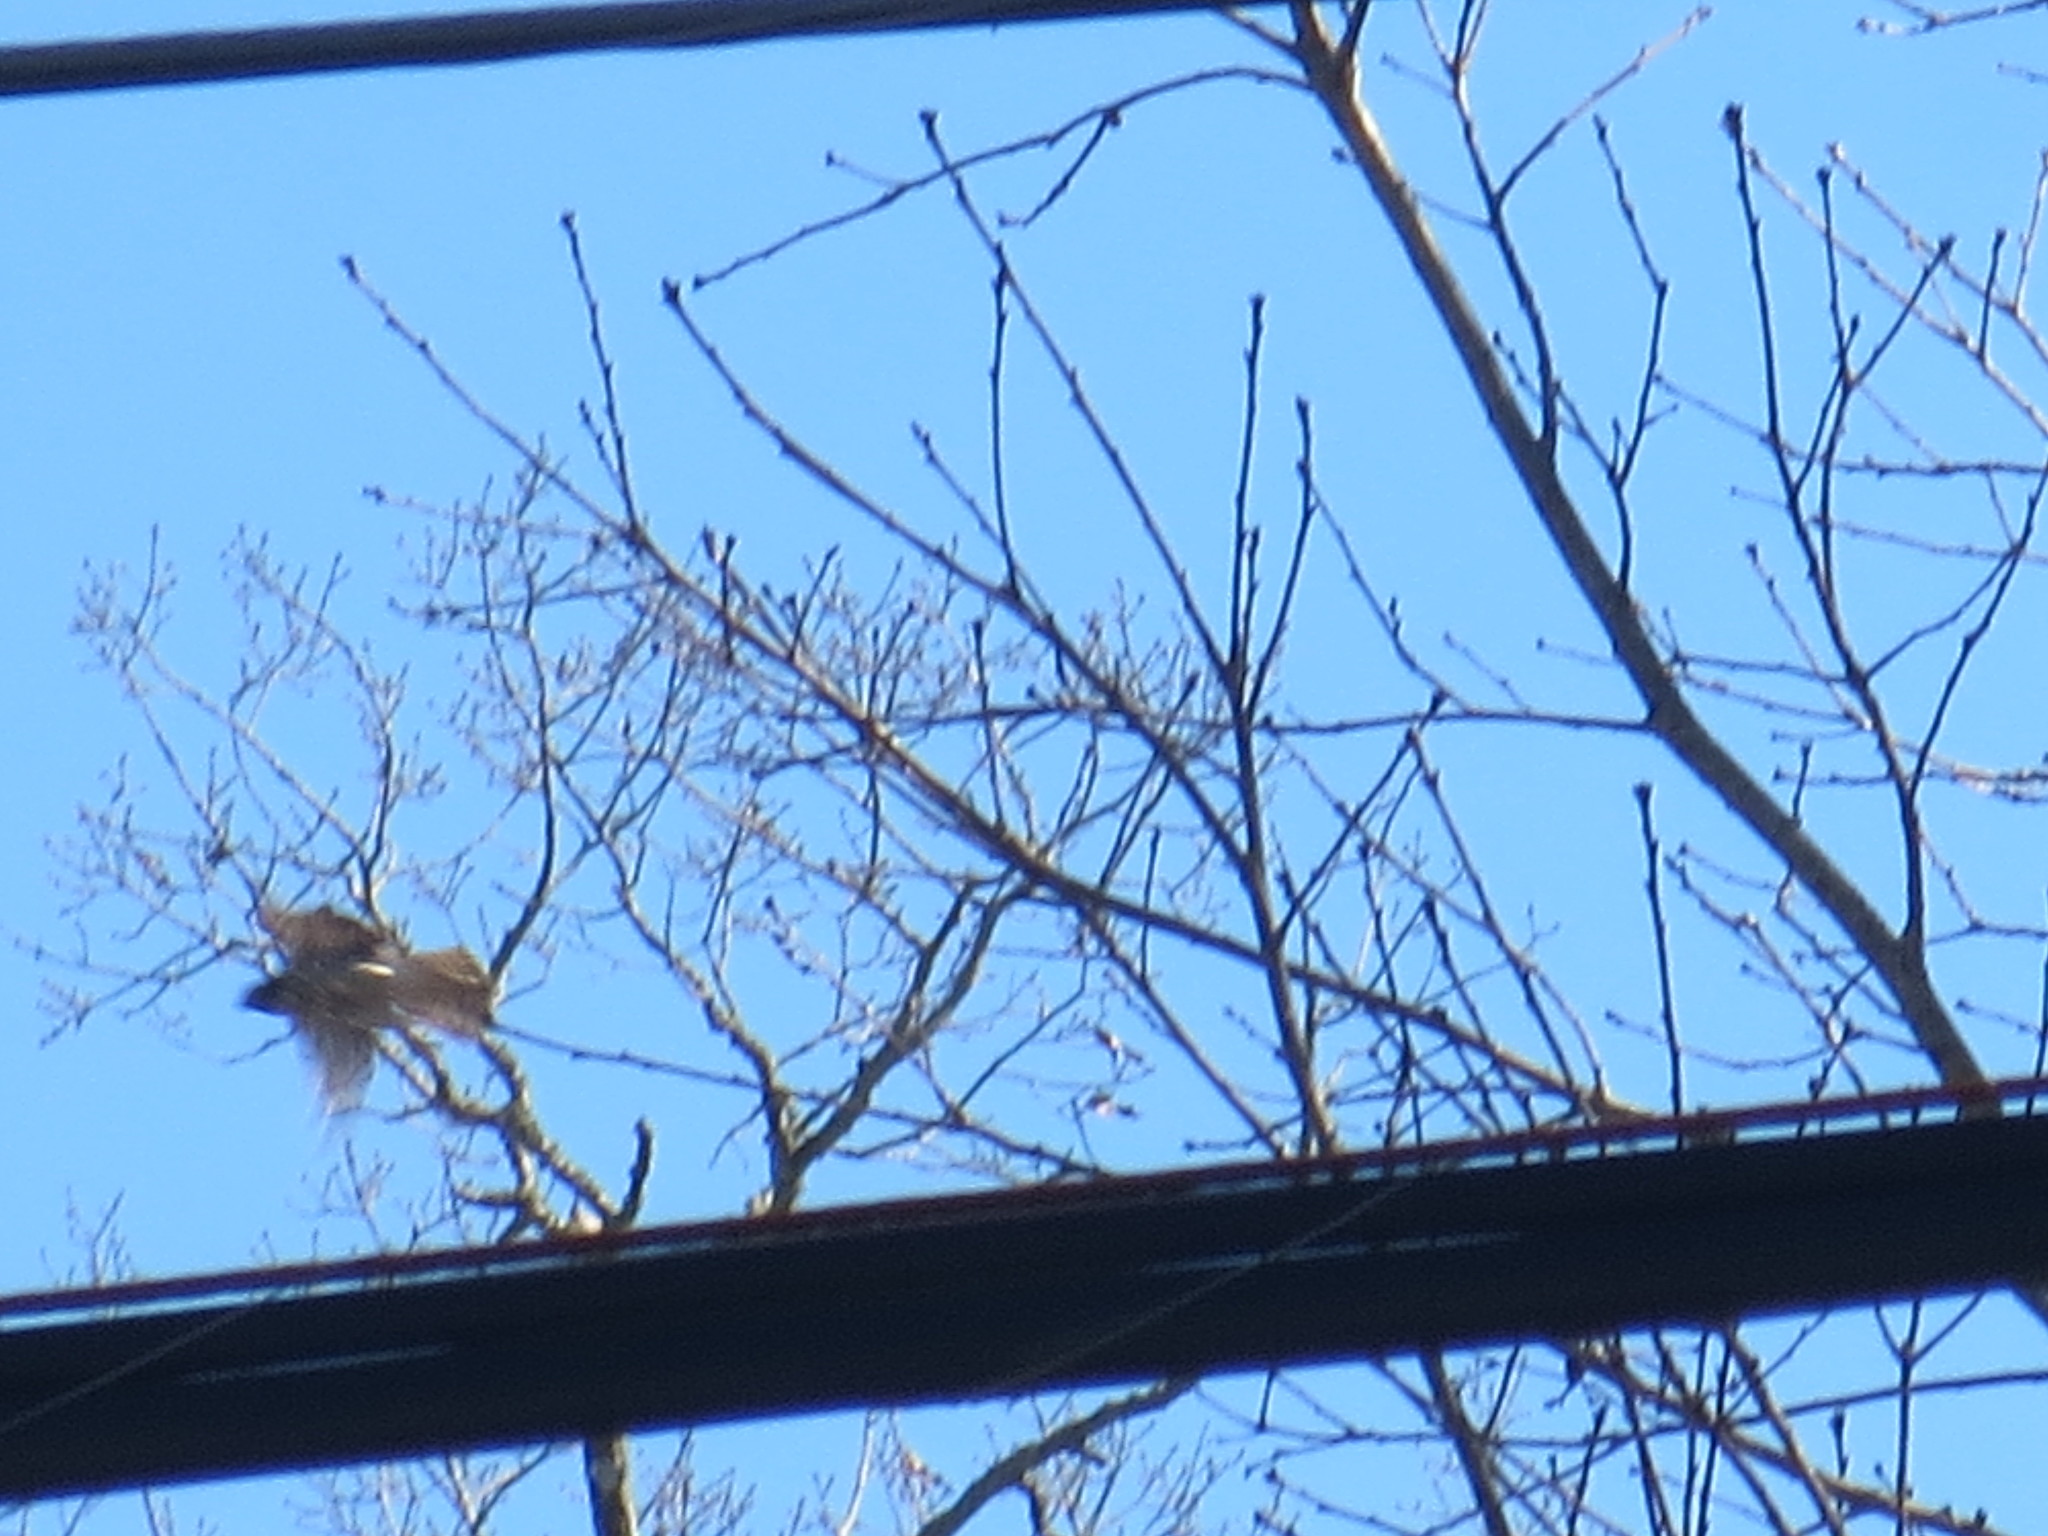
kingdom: Animalia
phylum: Chordata
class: Aves
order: Accipitriformes
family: Accipitridae
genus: Buteo
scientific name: Buteo lineatus
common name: Red-shouldered hawk
